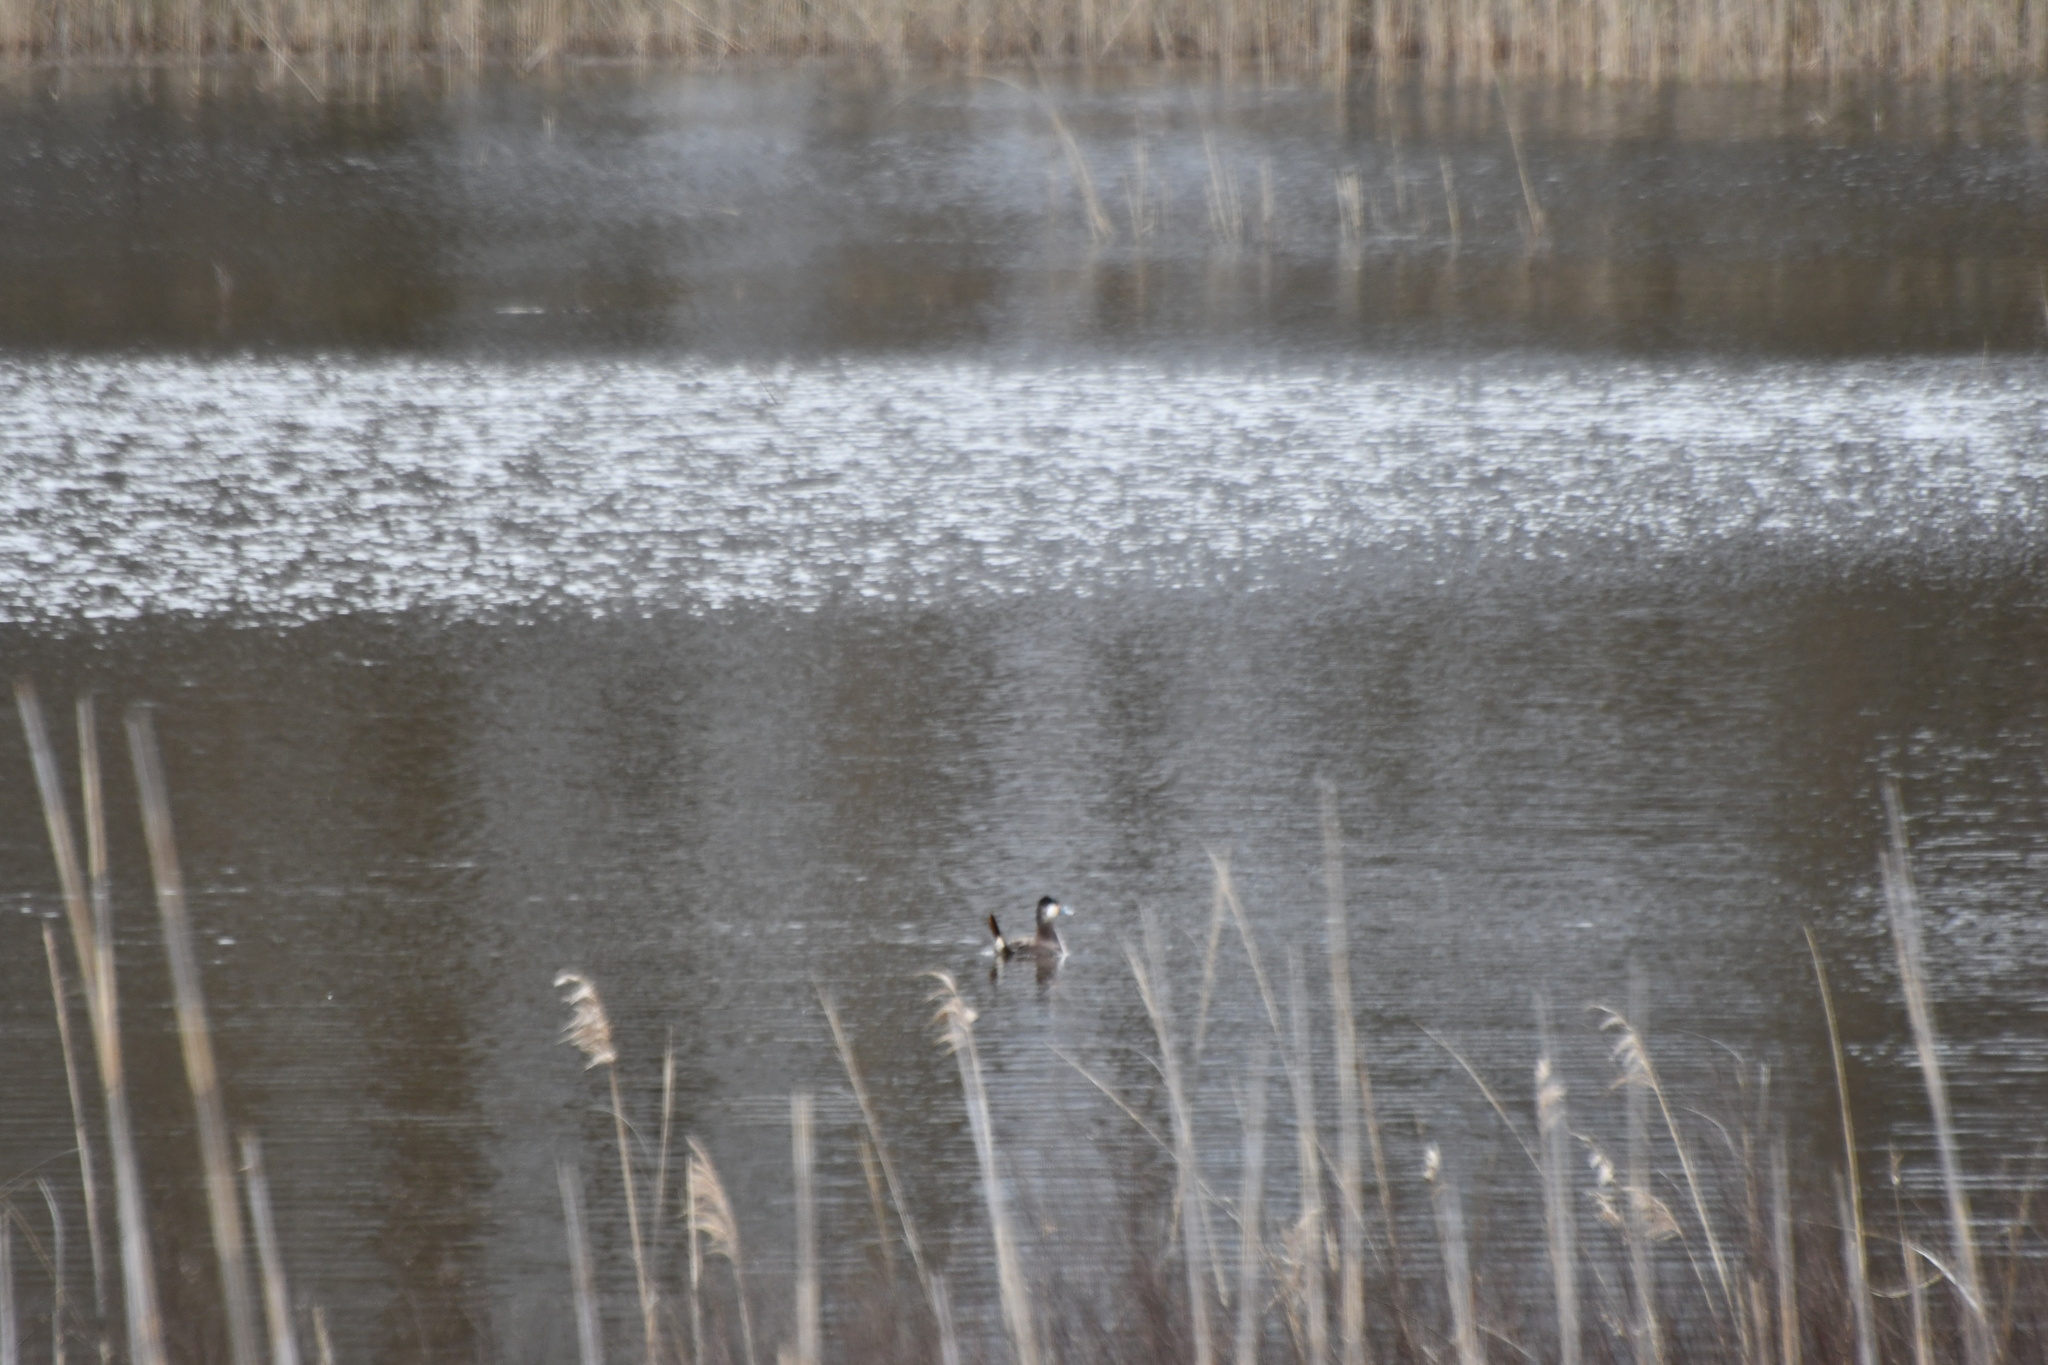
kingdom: Animalia
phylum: Chordata
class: Aves
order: Anseriformes
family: Anatidae
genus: Oxyura
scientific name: Oxyura jamaicensis
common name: Ruddy duck
